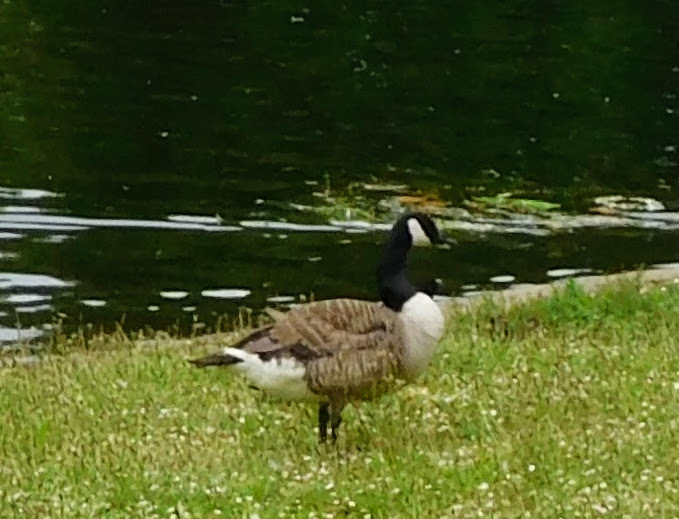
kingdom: Animalia
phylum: Chordata
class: Aves
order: Anseriformes
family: Anatidae
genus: Branta
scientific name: Branta canadensis
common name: Canada goose
